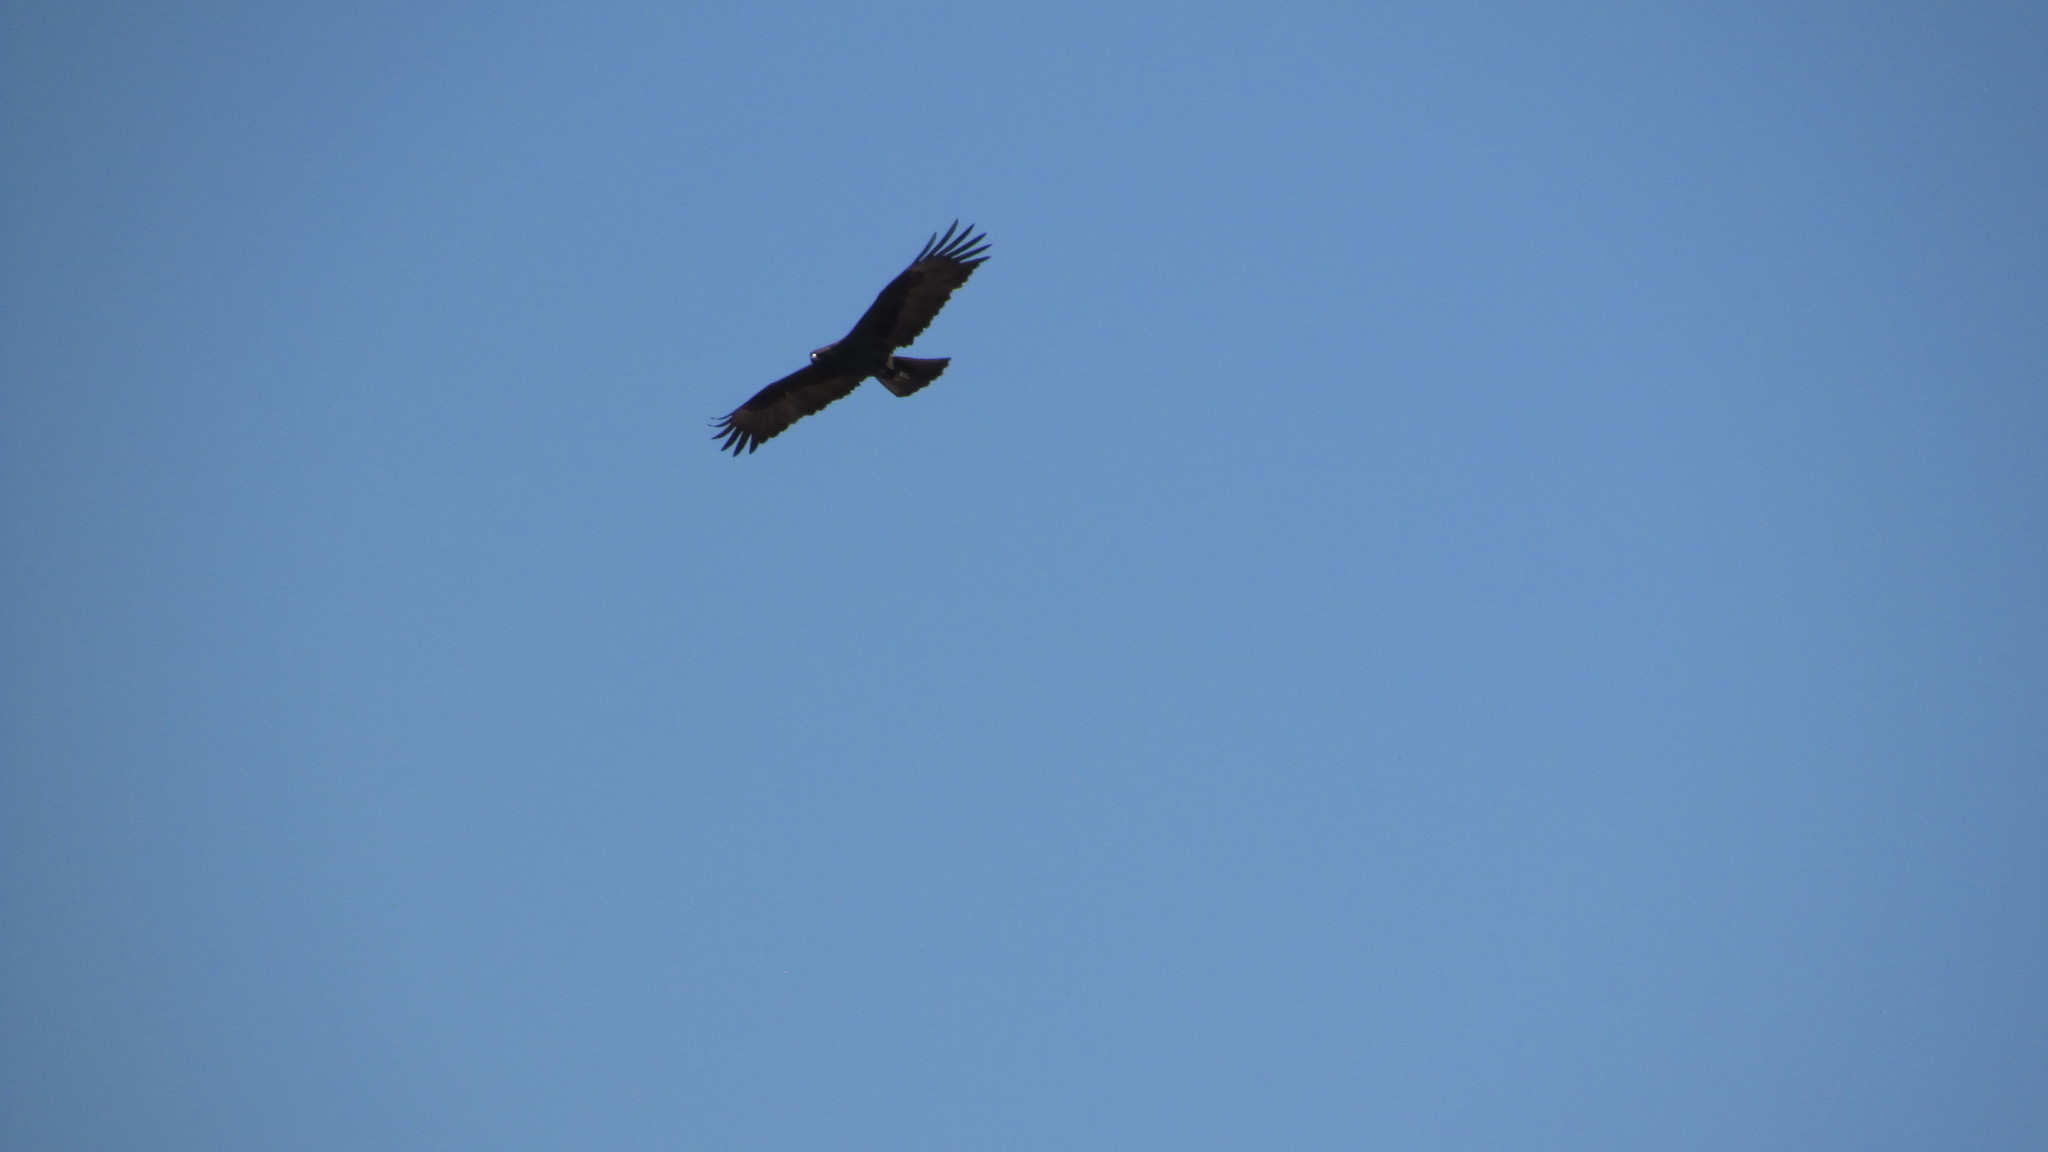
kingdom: Animalia
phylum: Chordata
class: Aves
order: Accipitriformes
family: Accipitridae
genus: Buteo
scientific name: Buteo buteo
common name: Common buzzard
